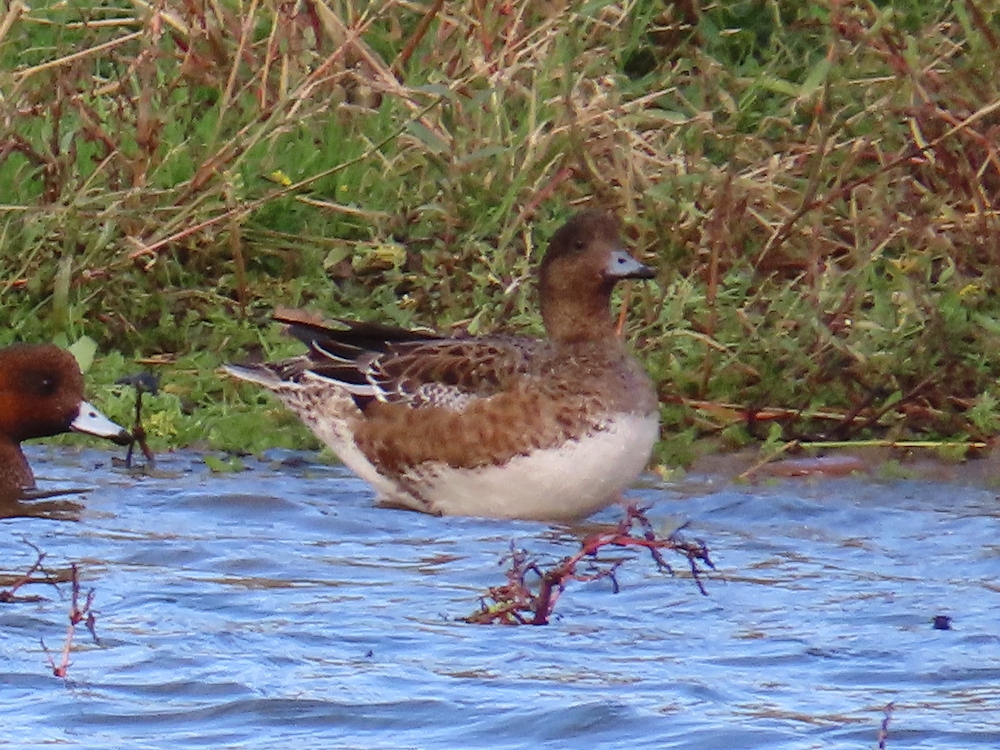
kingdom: Animalia
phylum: Chordata
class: Aves
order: Anseriformes
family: Anatidae
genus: Mareca
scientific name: Mareca penelope
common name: Eurasian wigeon
